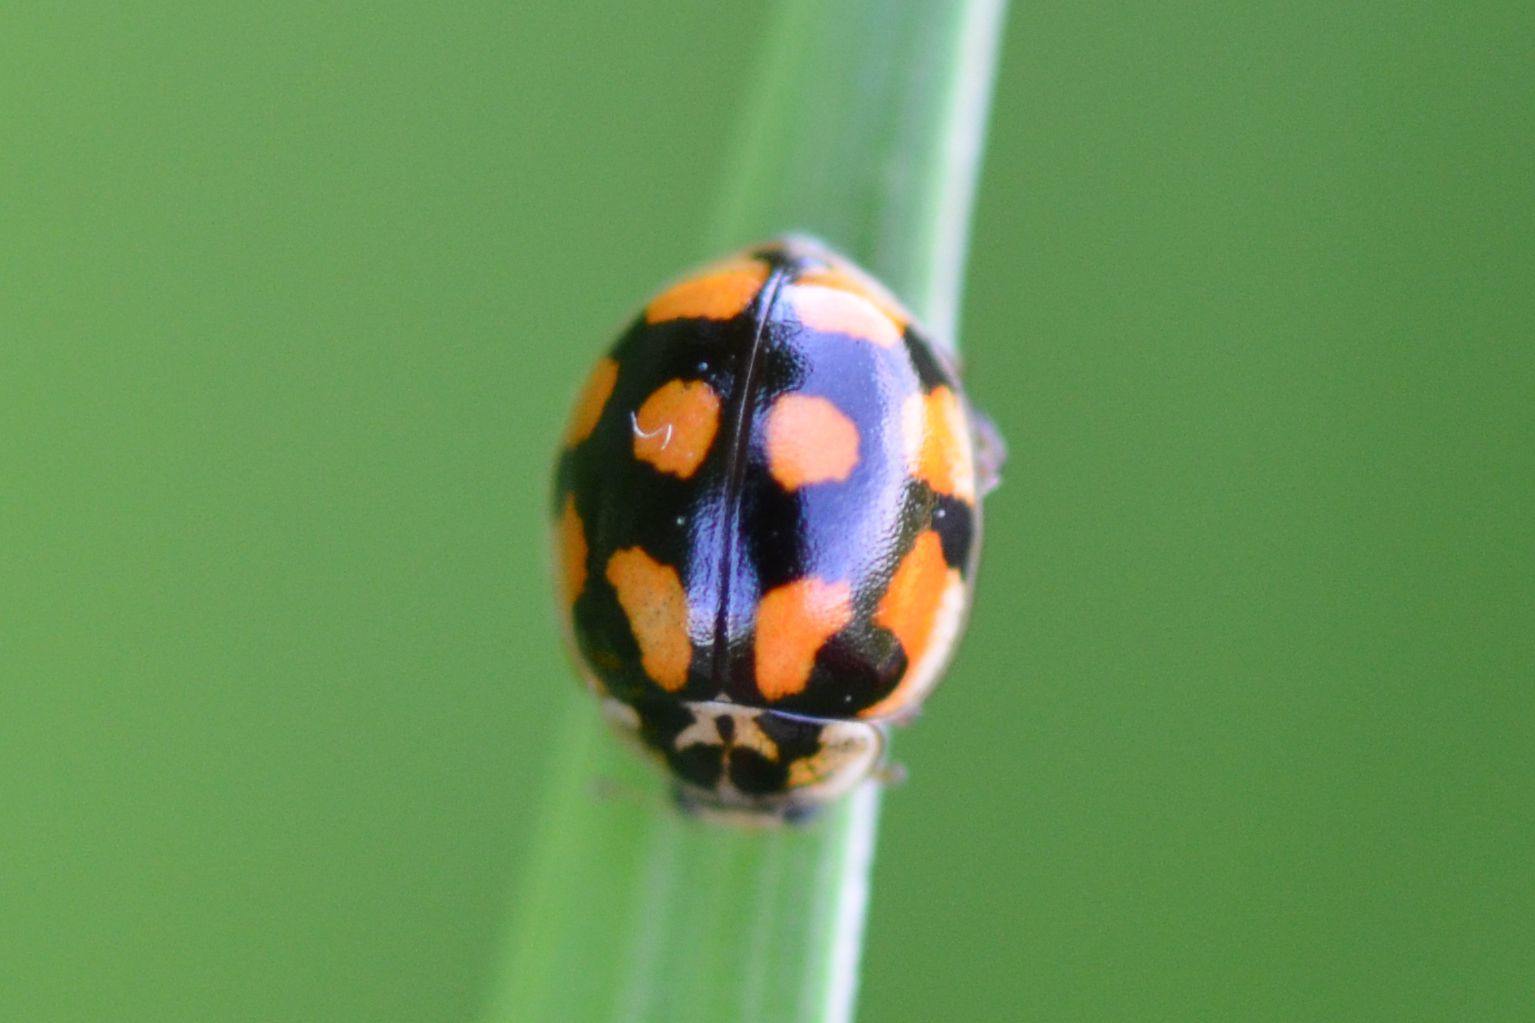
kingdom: Animalia
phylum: Arthropoda
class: Insecta
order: Coleoptera
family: Coccinellidae
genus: Adalia
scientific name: Adalia decempunctata
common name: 10-spot ladybird
